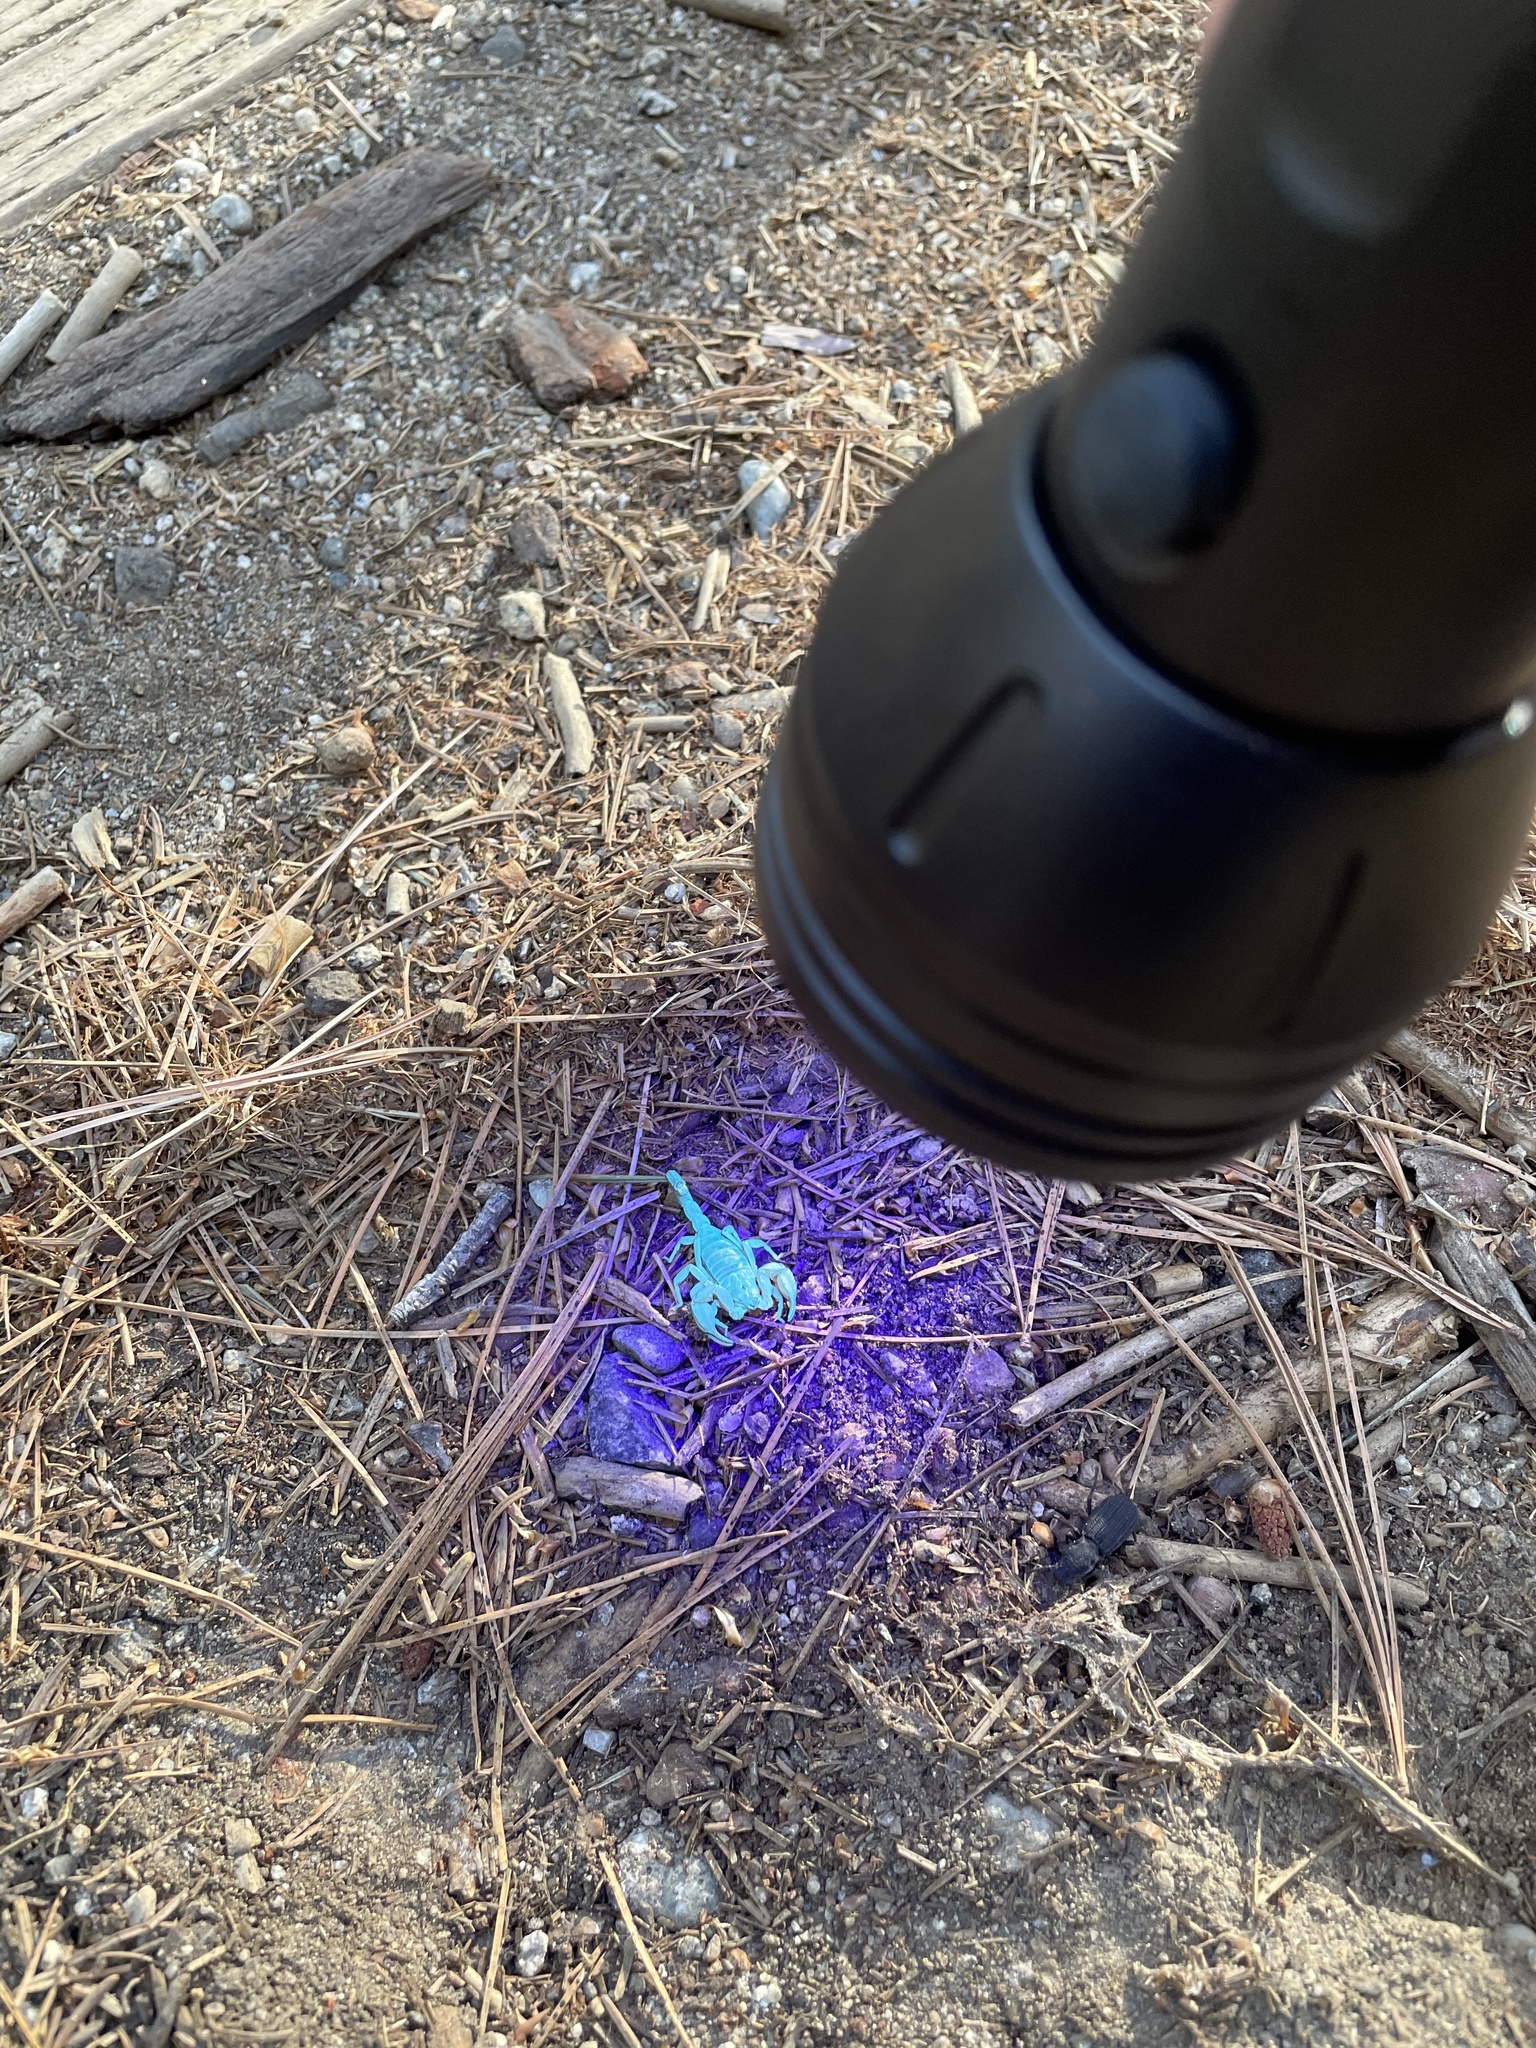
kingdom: Animalia
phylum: Arthropoda
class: Arachnida
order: Scorpiones
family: Chactidae
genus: Uroctonus
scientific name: Uroctonus mordax
